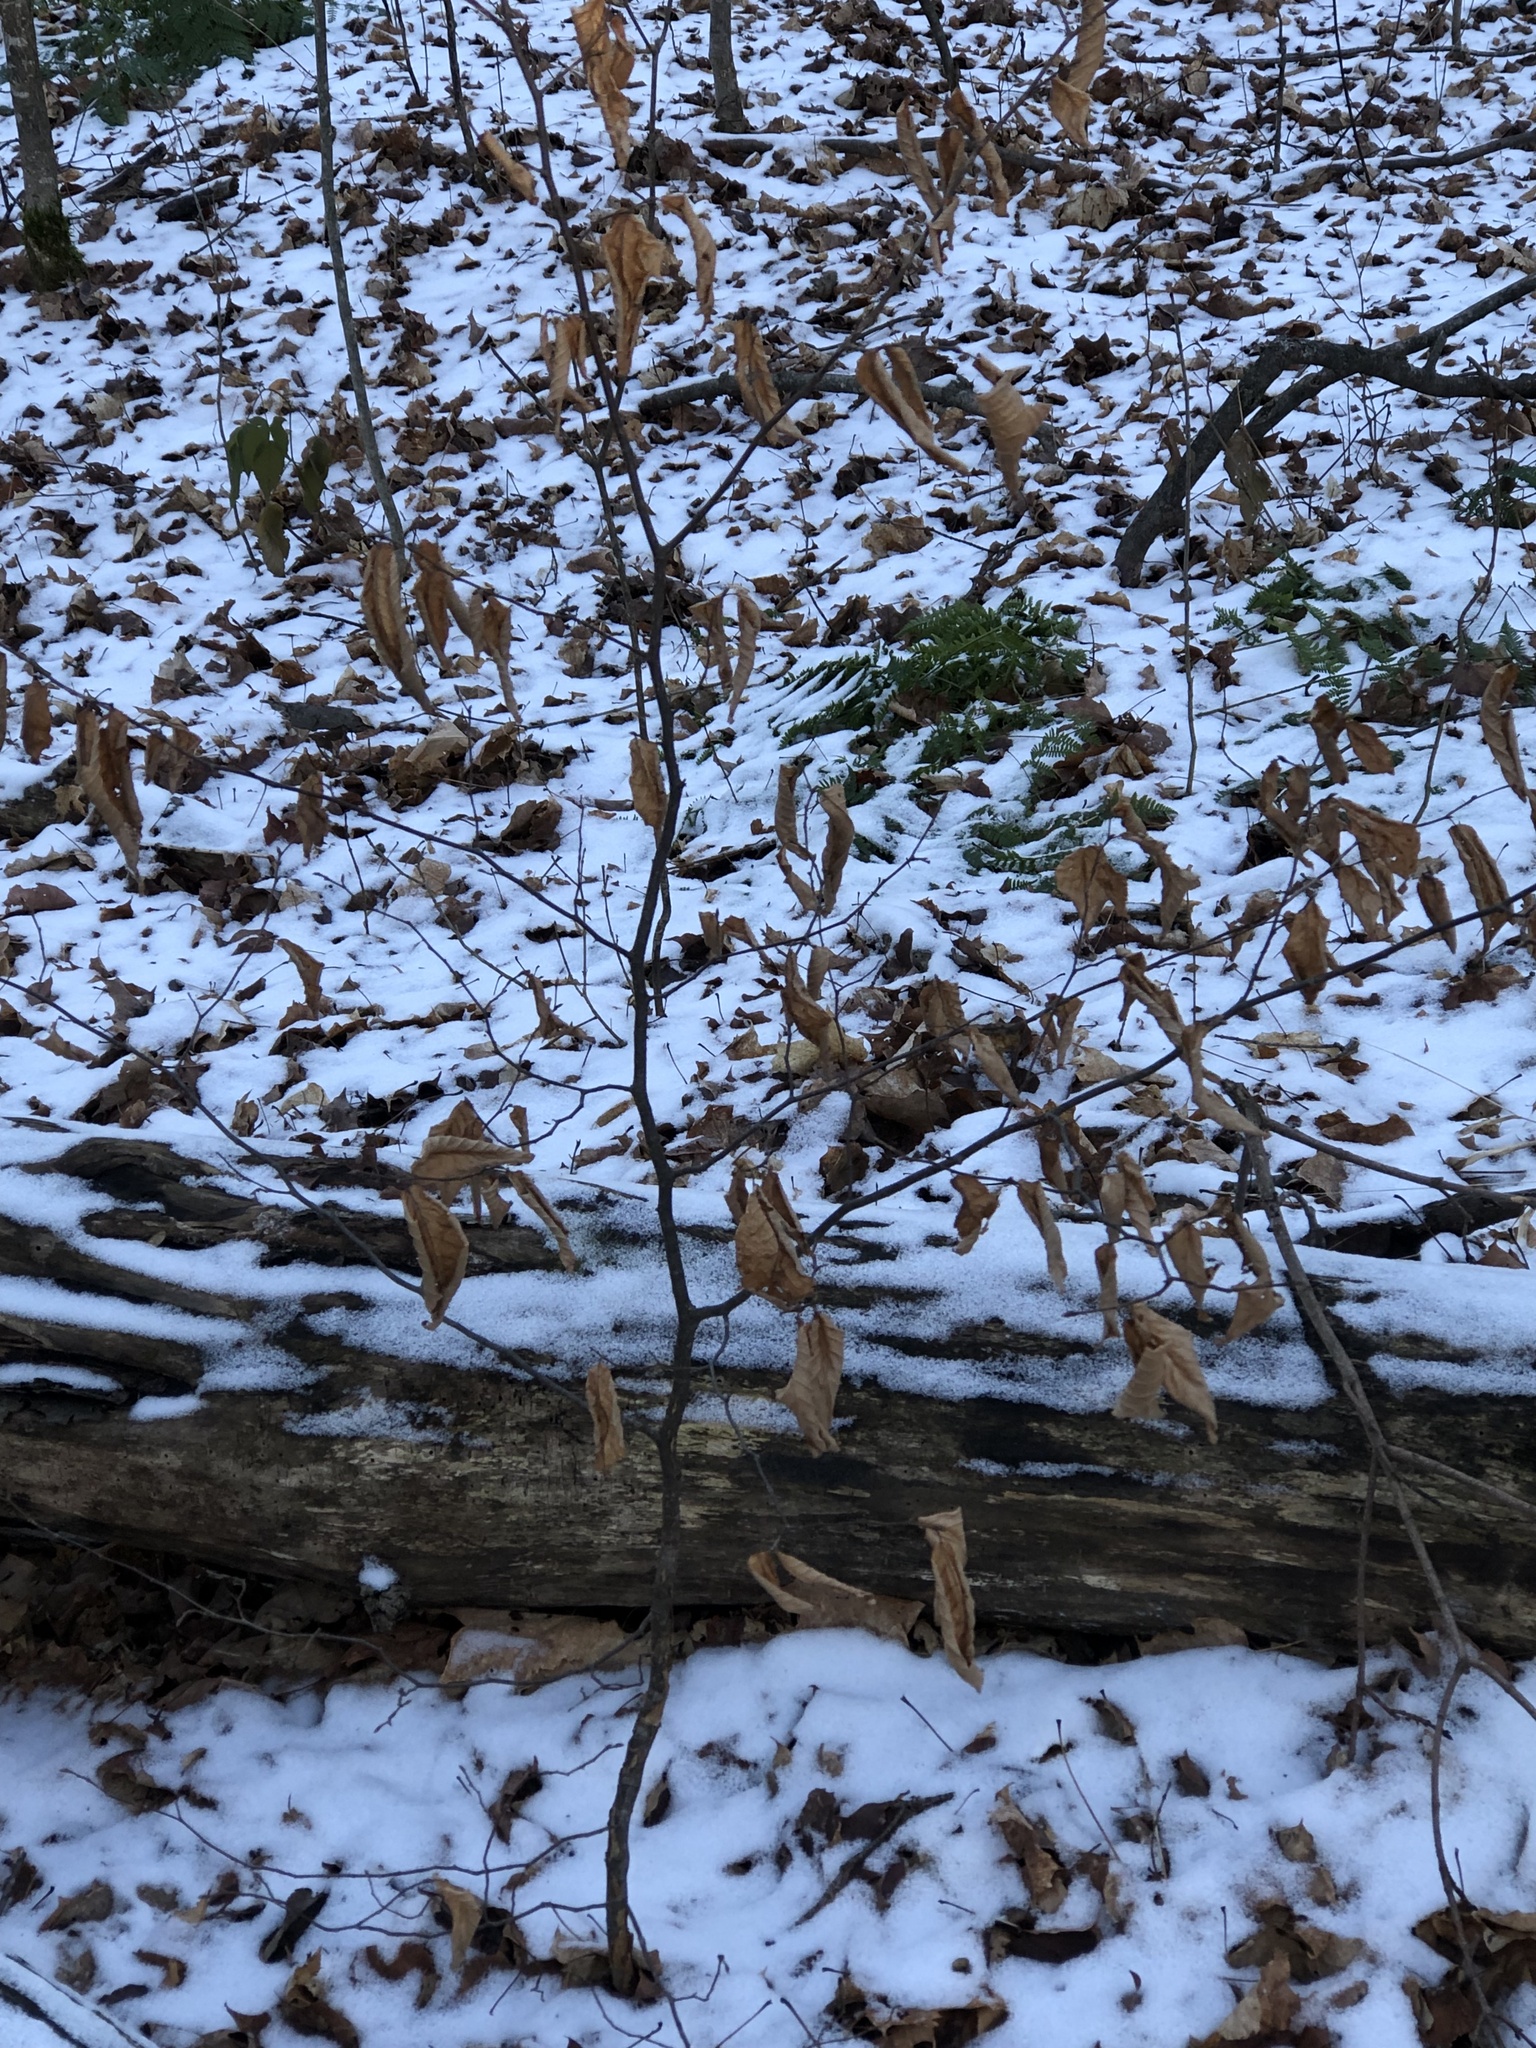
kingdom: Plantae
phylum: Tracheophyta
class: Magnoliopsida
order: Fagales
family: Fagaceae
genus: Fagus
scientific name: Fagus grandifolia
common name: American beech
